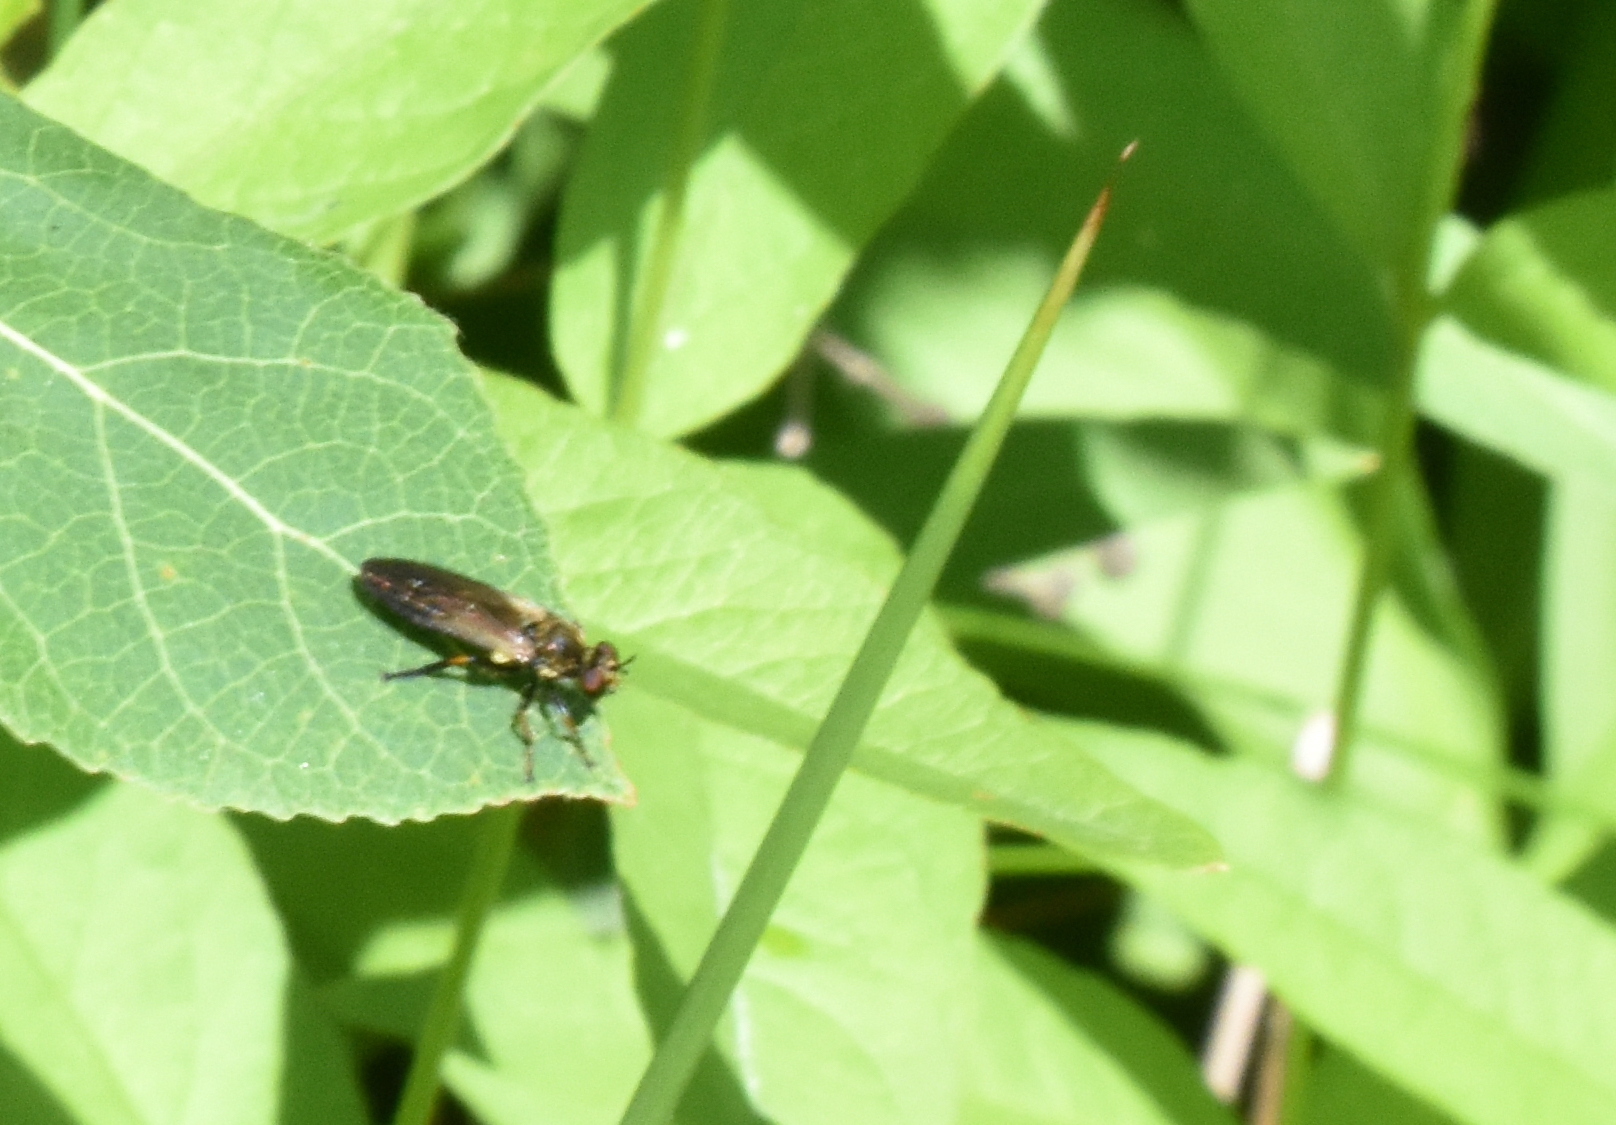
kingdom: Animalia
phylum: Arthropoda
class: Insecta
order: Diptera
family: Asilidae
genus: Eudioctria
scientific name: Eudioctria sackeni
